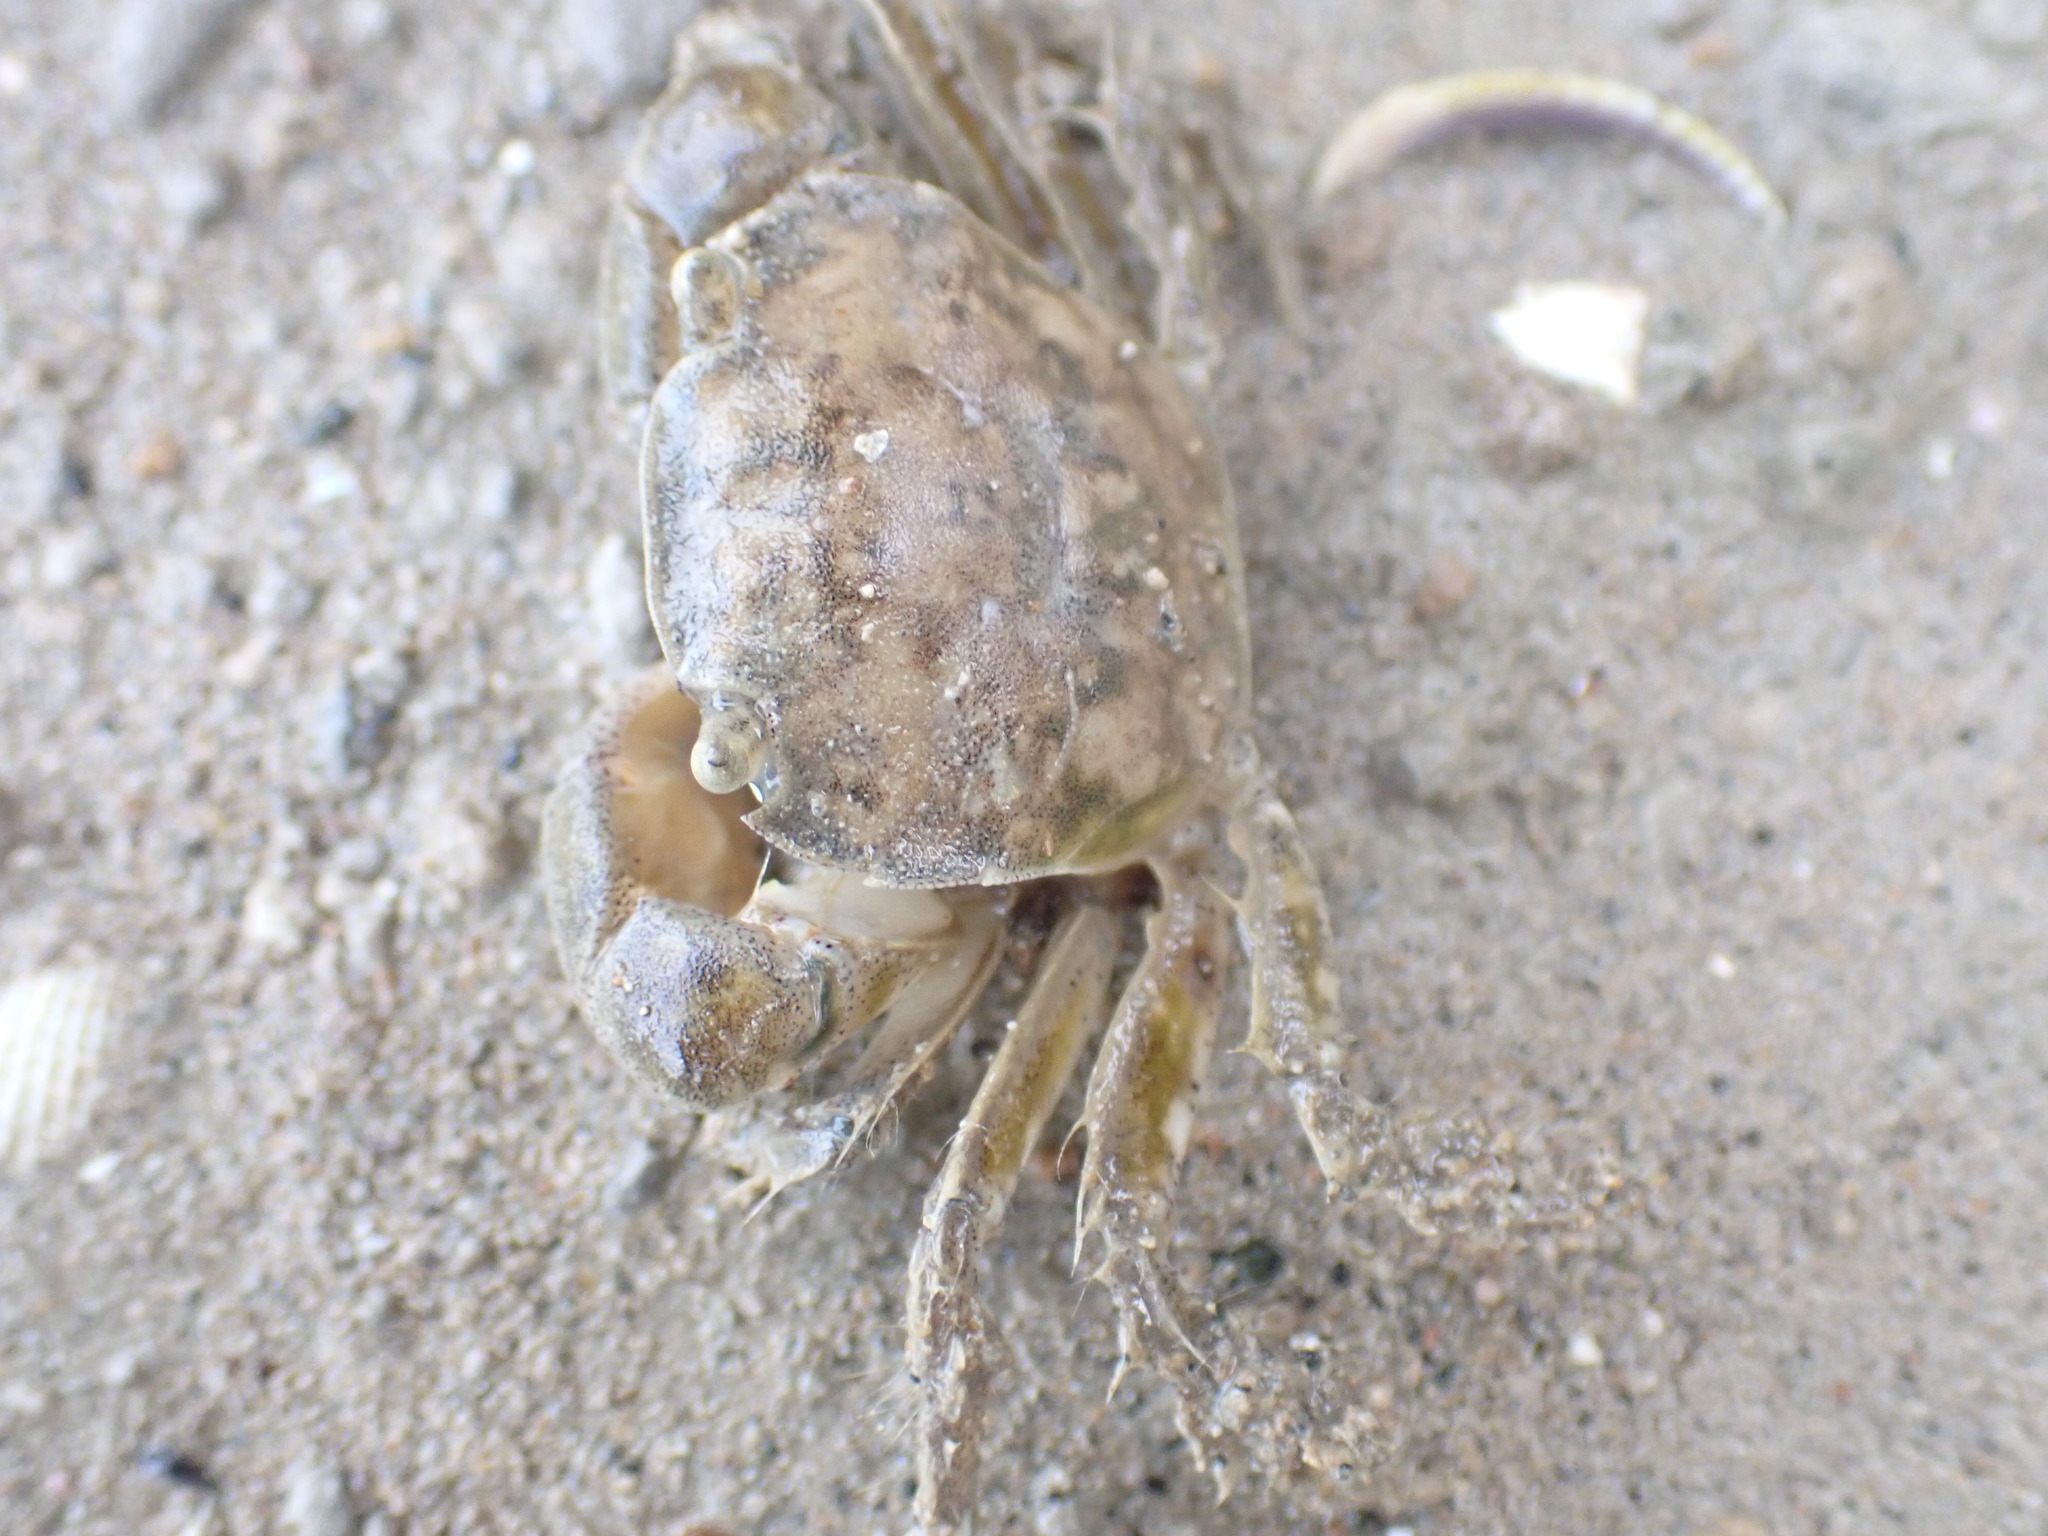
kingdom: Animalia
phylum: Arthropoda
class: Malacostraca
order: Decapoda
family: Varunidae
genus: Hemigrapsus
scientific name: Hemigrapsus crenulatus
